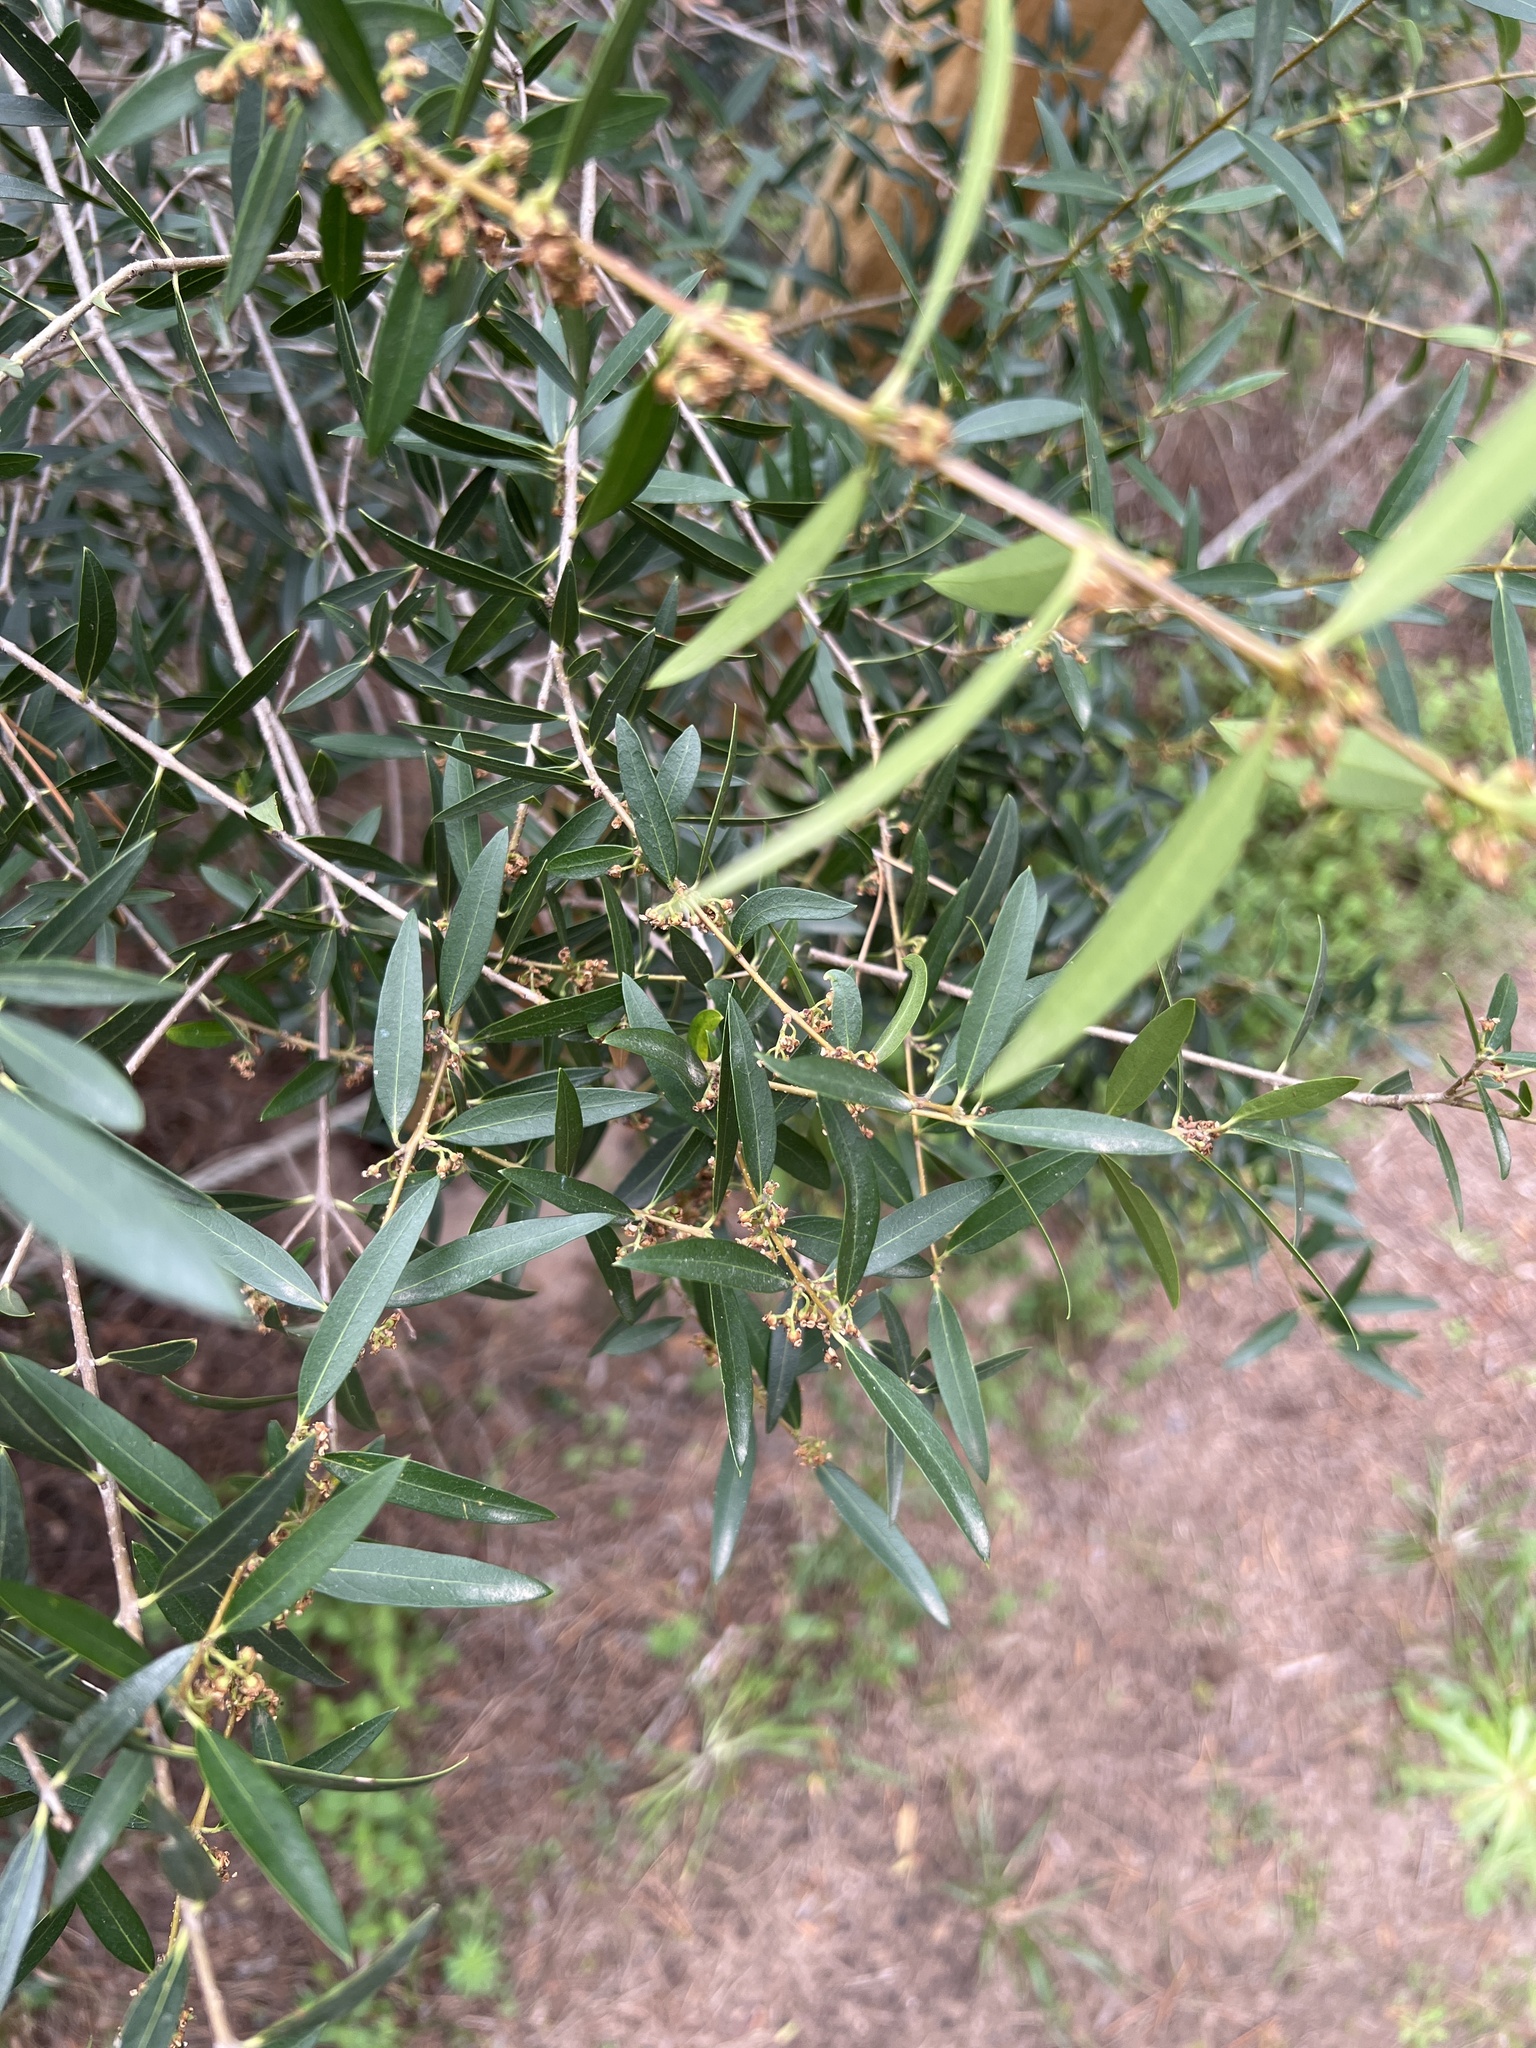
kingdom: Plantae
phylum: Tracheophyta
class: Magnoliopsida
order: Lamiales
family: Oleaceae
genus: Phillyrea
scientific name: Phillyrea angustifolia
